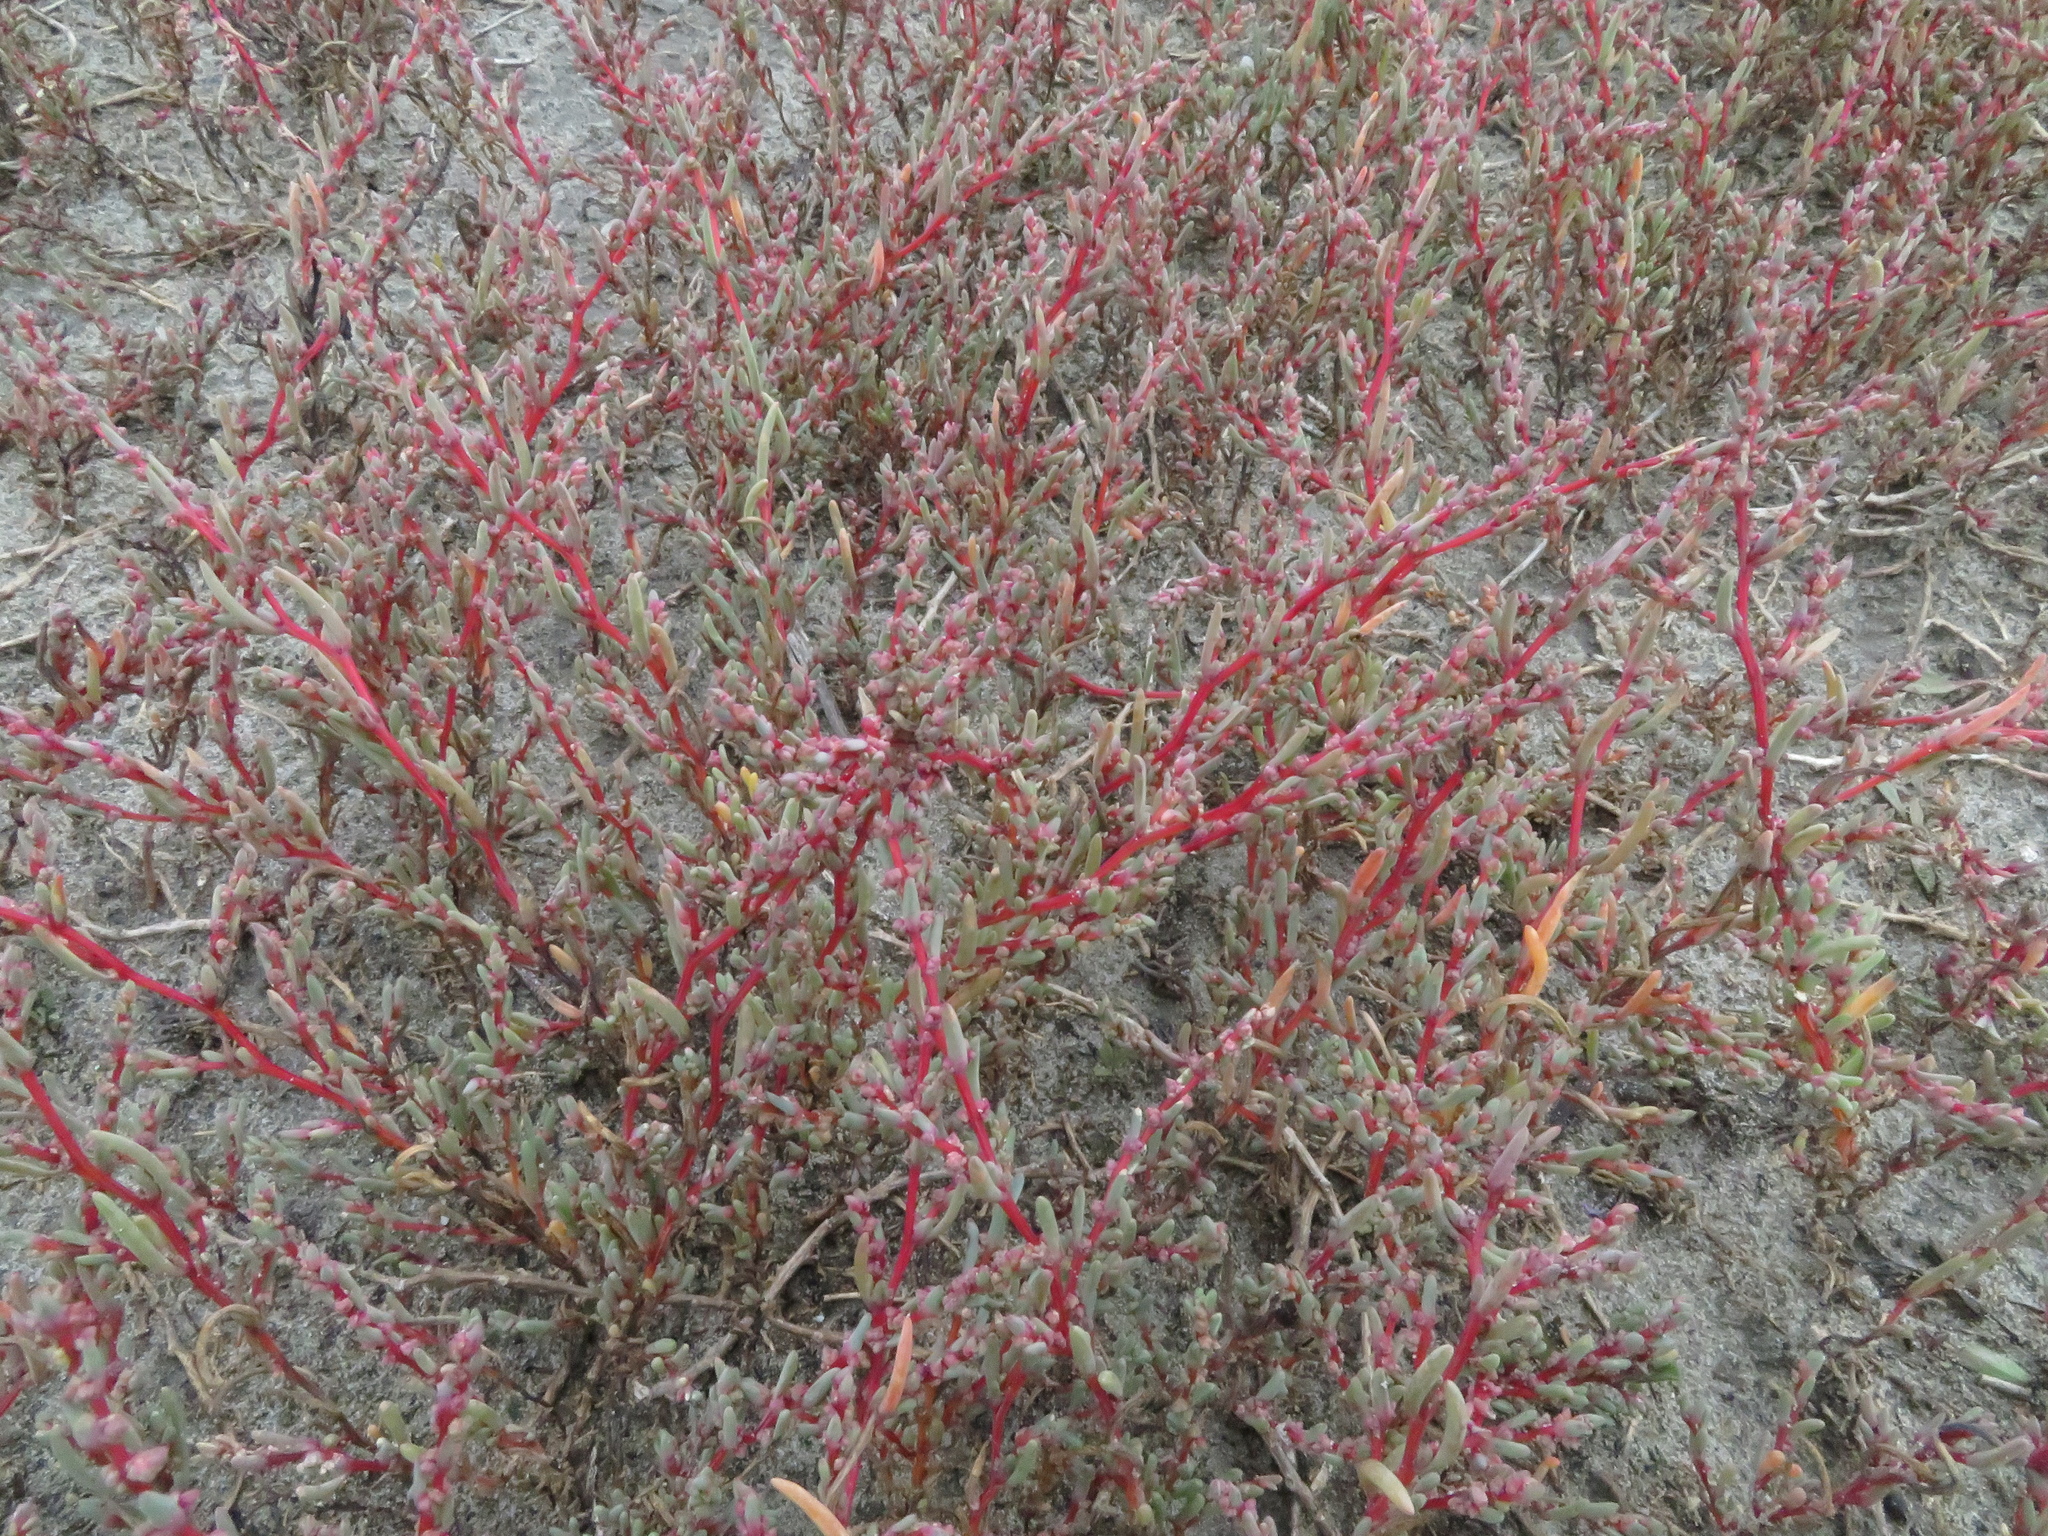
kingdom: Plantae
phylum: Tracheophyta
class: Magnoliopsida
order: Caryophyllales
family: Amaranthaceae
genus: Suaeda
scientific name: Suaeda pannonica
